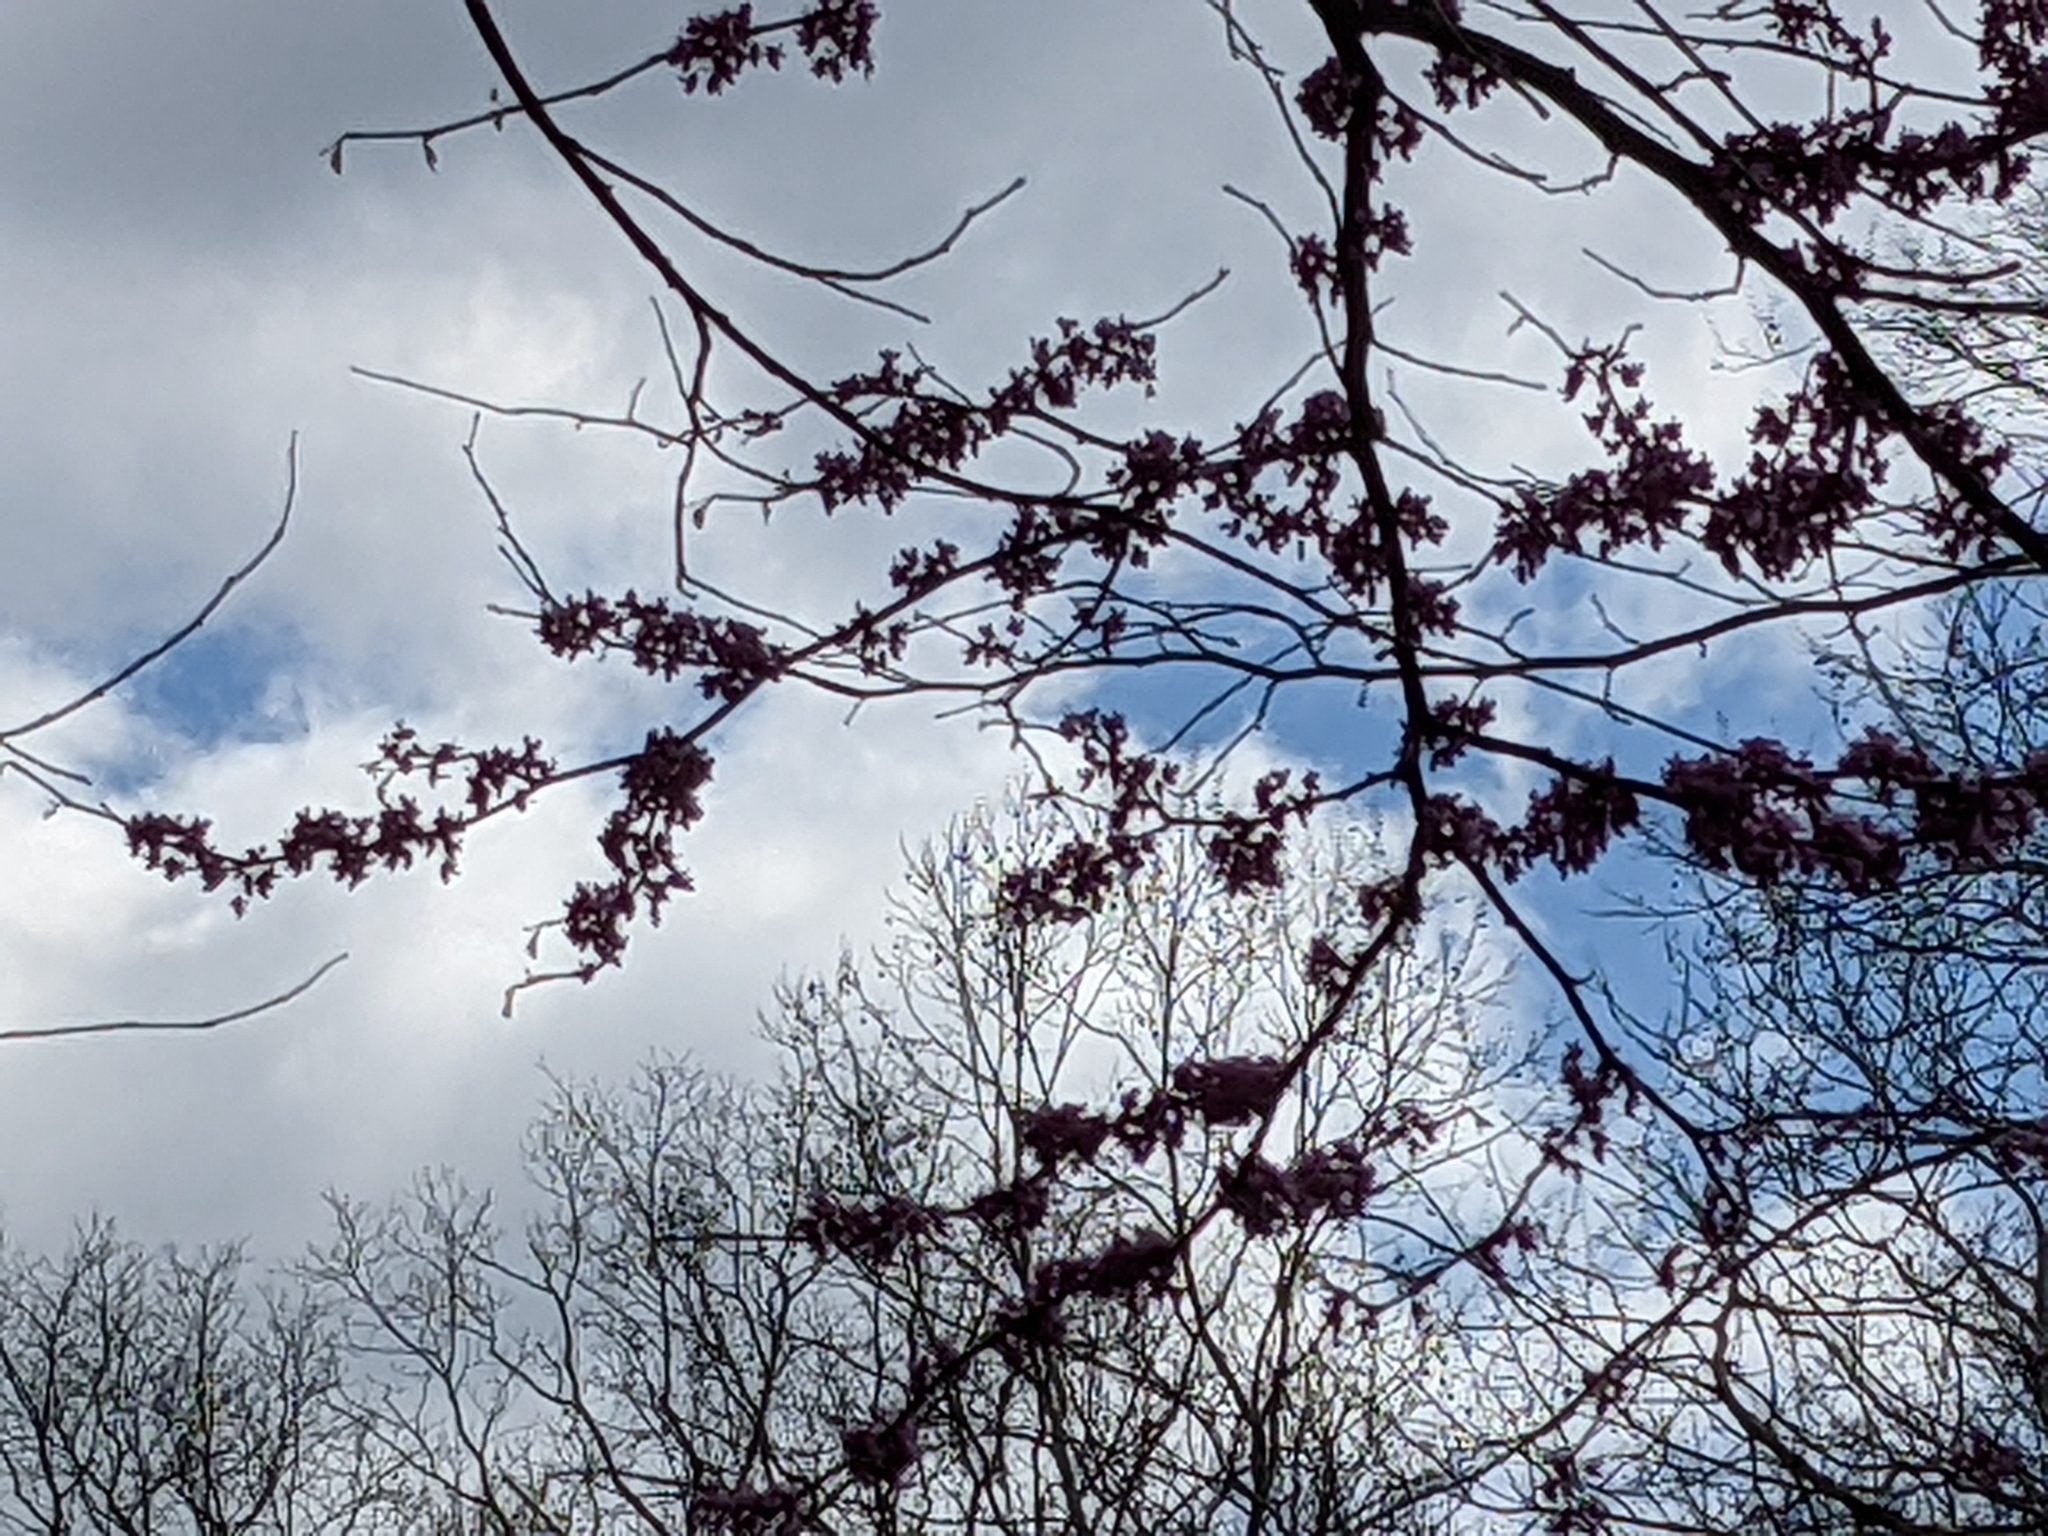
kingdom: Plantae
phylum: Tracheophyta
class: Magnoliopsida
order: Fabales
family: Fabaceae
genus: Cercis
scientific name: Cercis canadensis
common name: Eastern redbud
